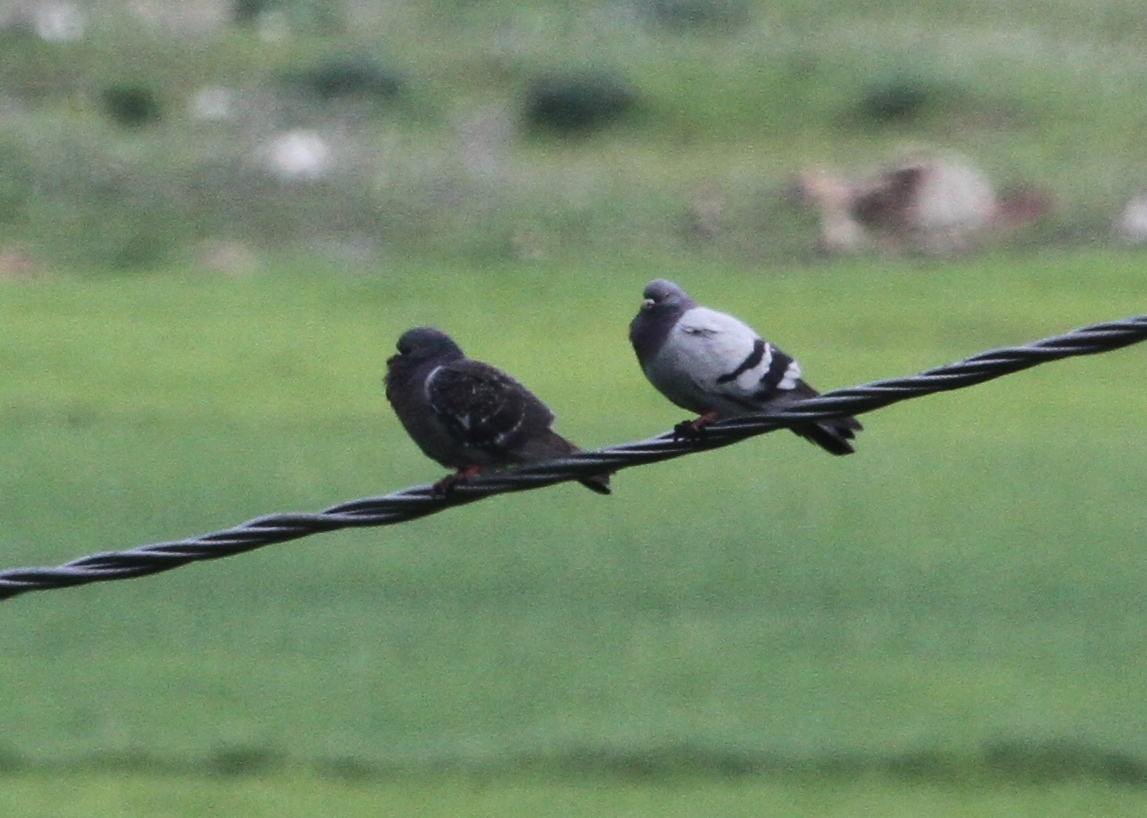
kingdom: Animalia
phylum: Chordata
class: Aves
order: Columbiformes
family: Columbidae
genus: Columba
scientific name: Columba livia
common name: Rock pigeon
